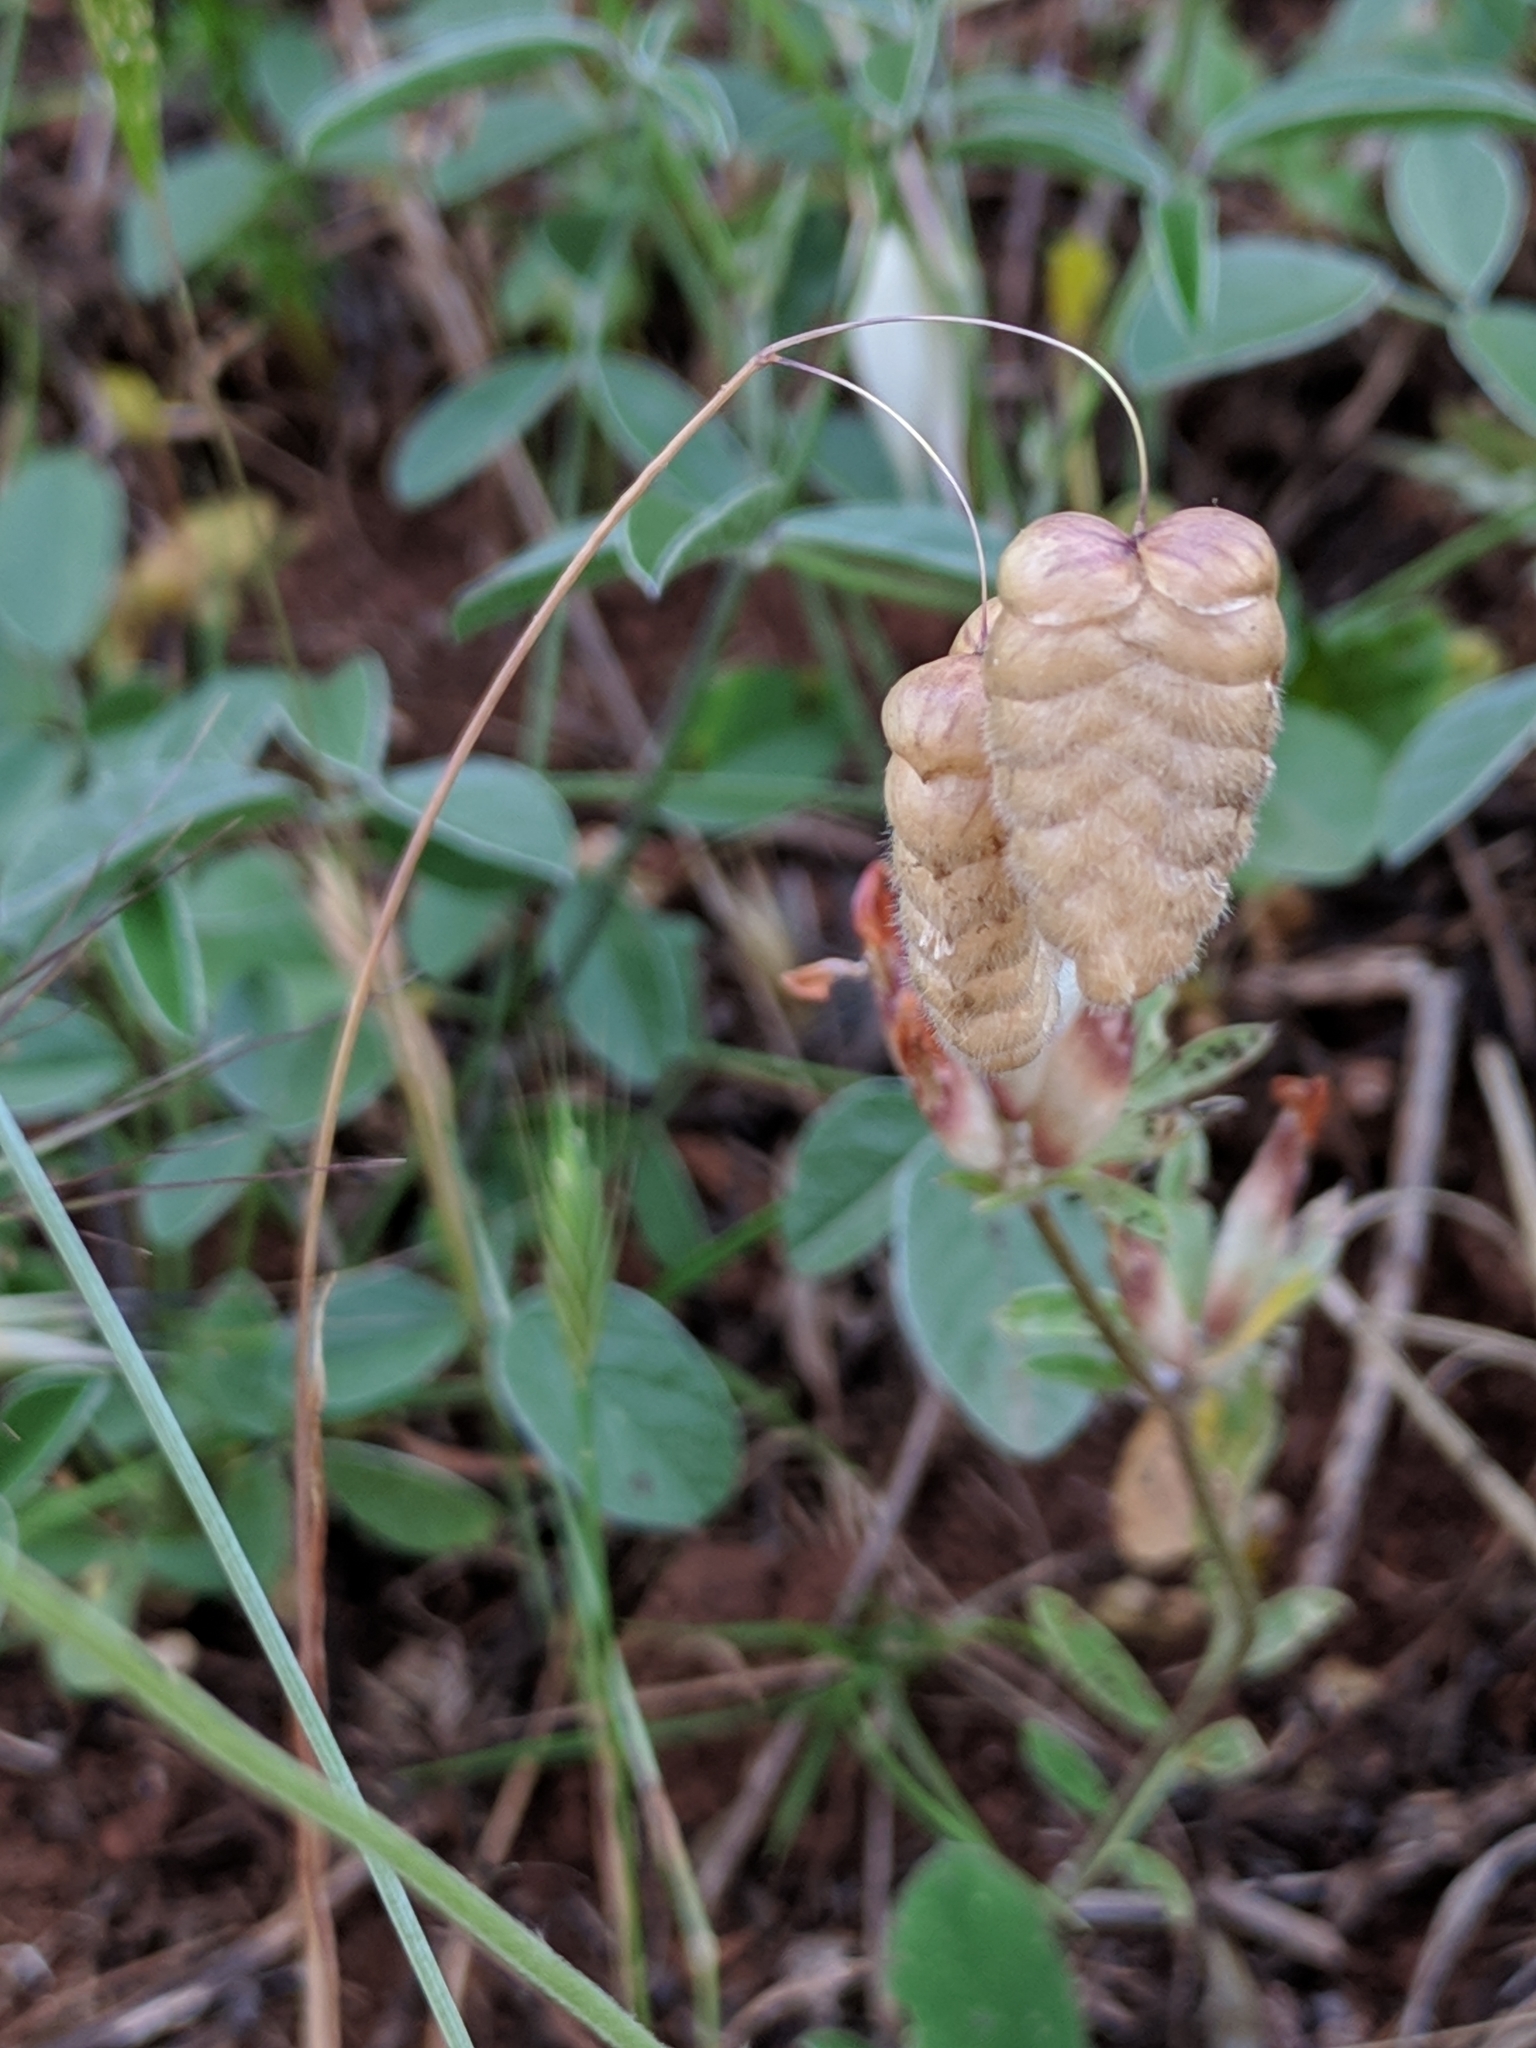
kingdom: Plantae
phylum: Tracheophyta
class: Liliopsida
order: Poales
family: Poaceae
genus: Briza
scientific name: Briza maxima
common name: Big quakinggrass
